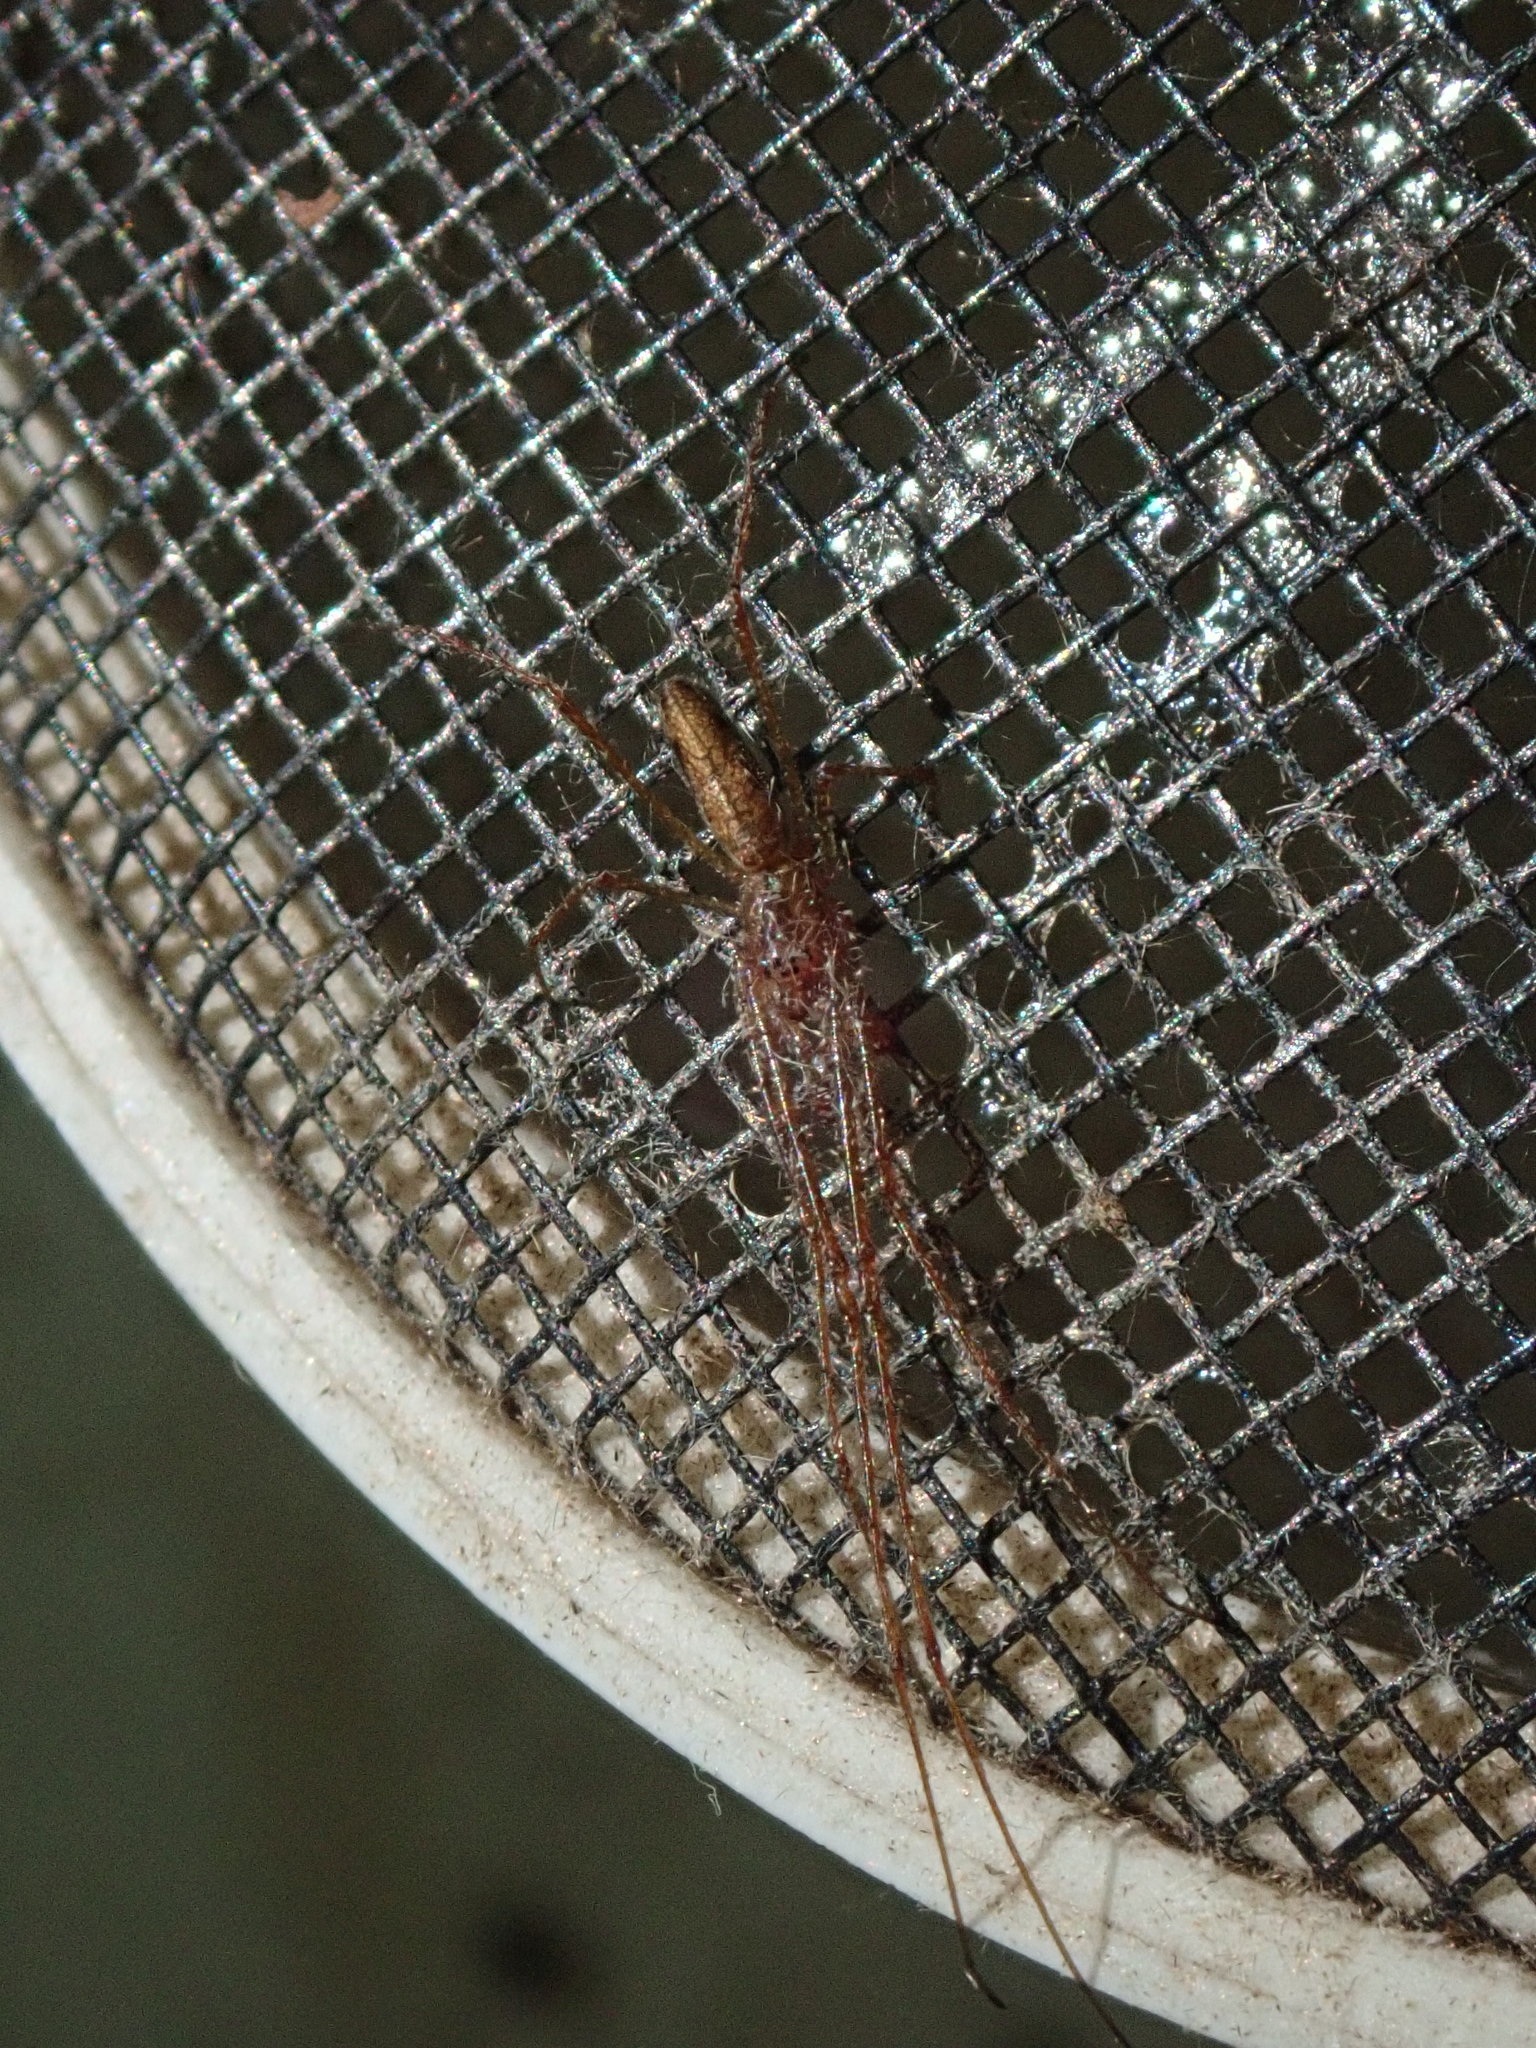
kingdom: Animalia
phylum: Arthropoda
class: Arachnida
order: Araneae
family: Tetragnathidae
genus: Tetragnatha
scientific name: Tetragnatha
